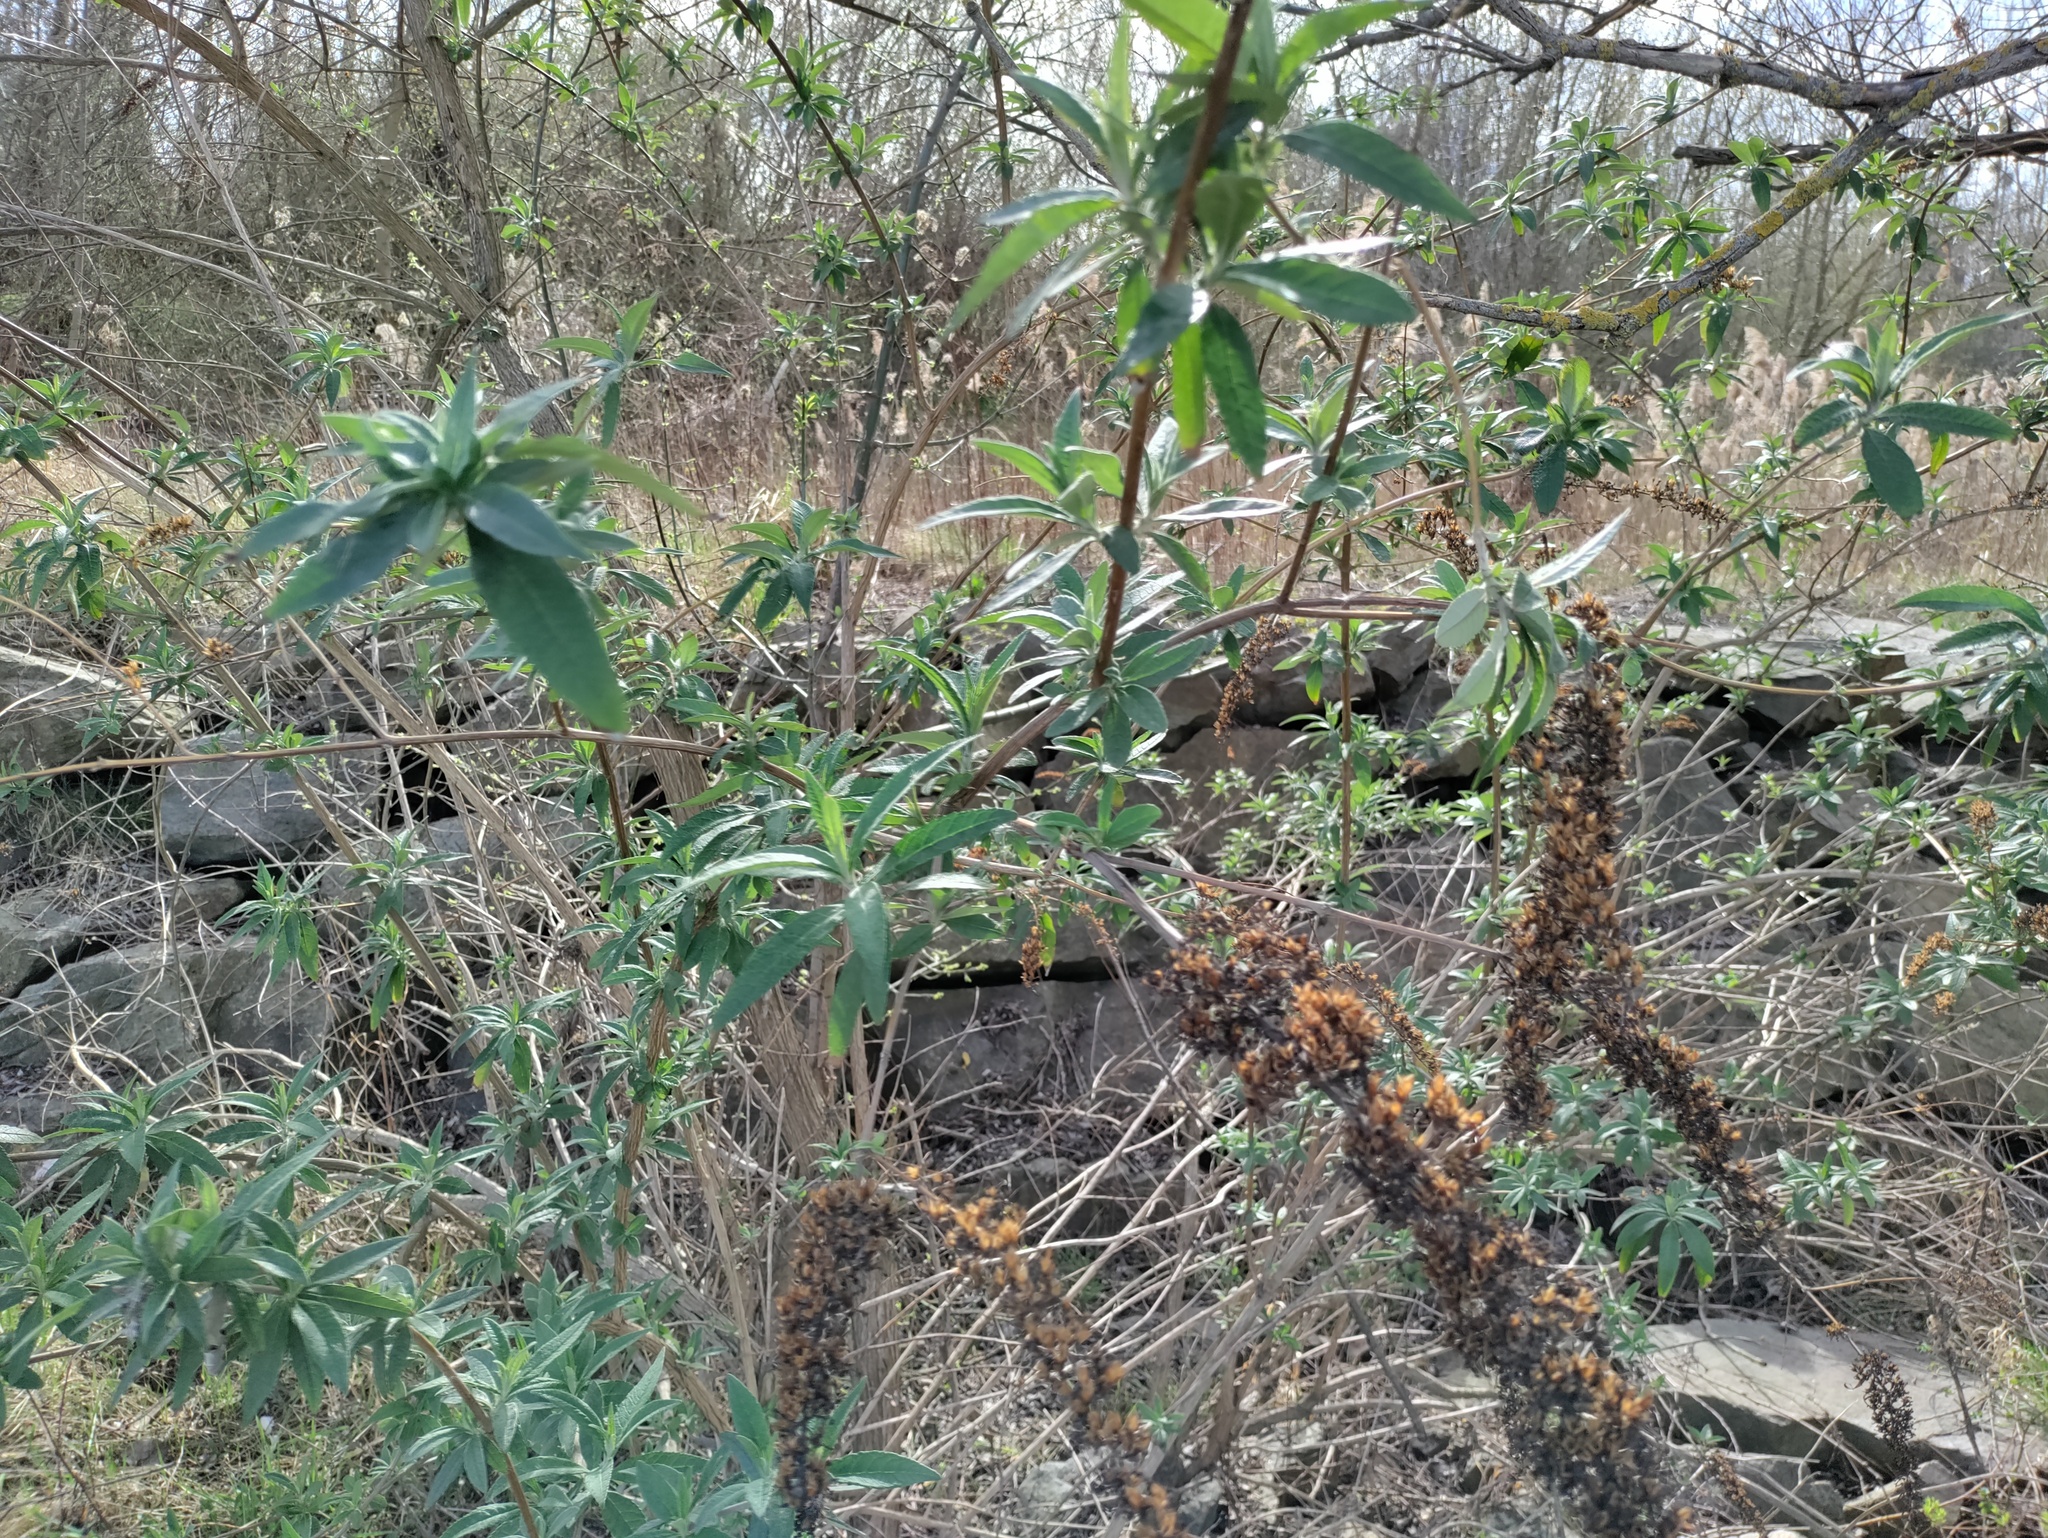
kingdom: Plantae
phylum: Tracheophyta
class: Magnoliopsida
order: Lamiales
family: Scrophulariaceae
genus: Buddleja
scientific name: Buddleja davidii
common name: Butterfly-bush
